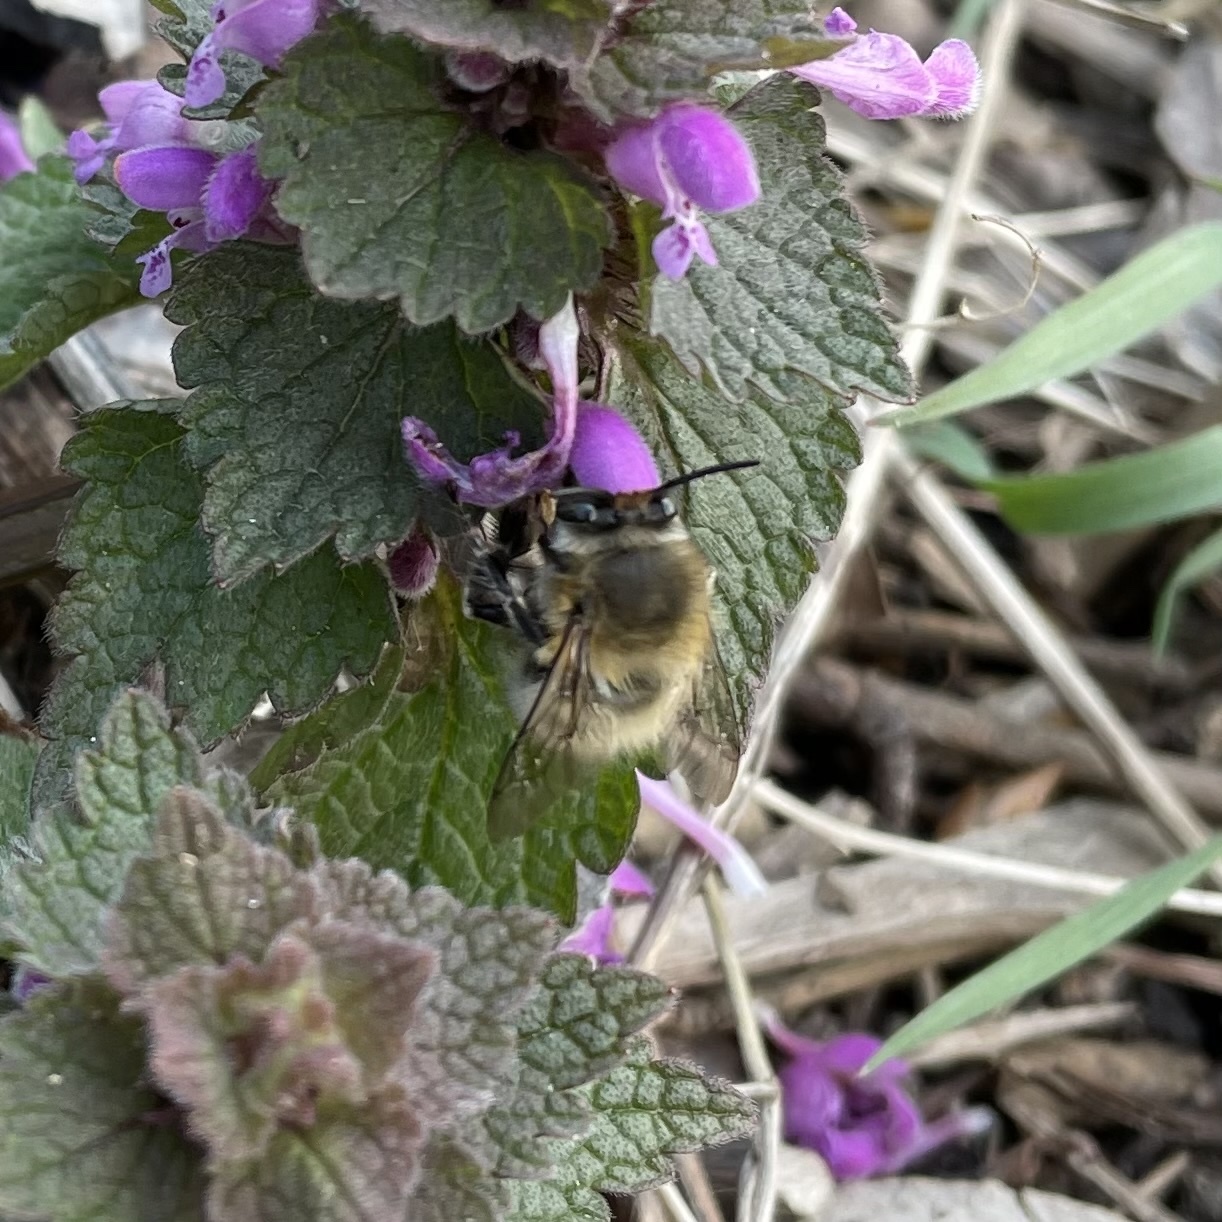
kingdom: Animalia
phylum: Arthropoda
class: Insecta
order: Hymenoptera
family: Apidae
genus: Anthophora
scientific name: Anthophora plumipes
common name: Hairy-footed flower bee
